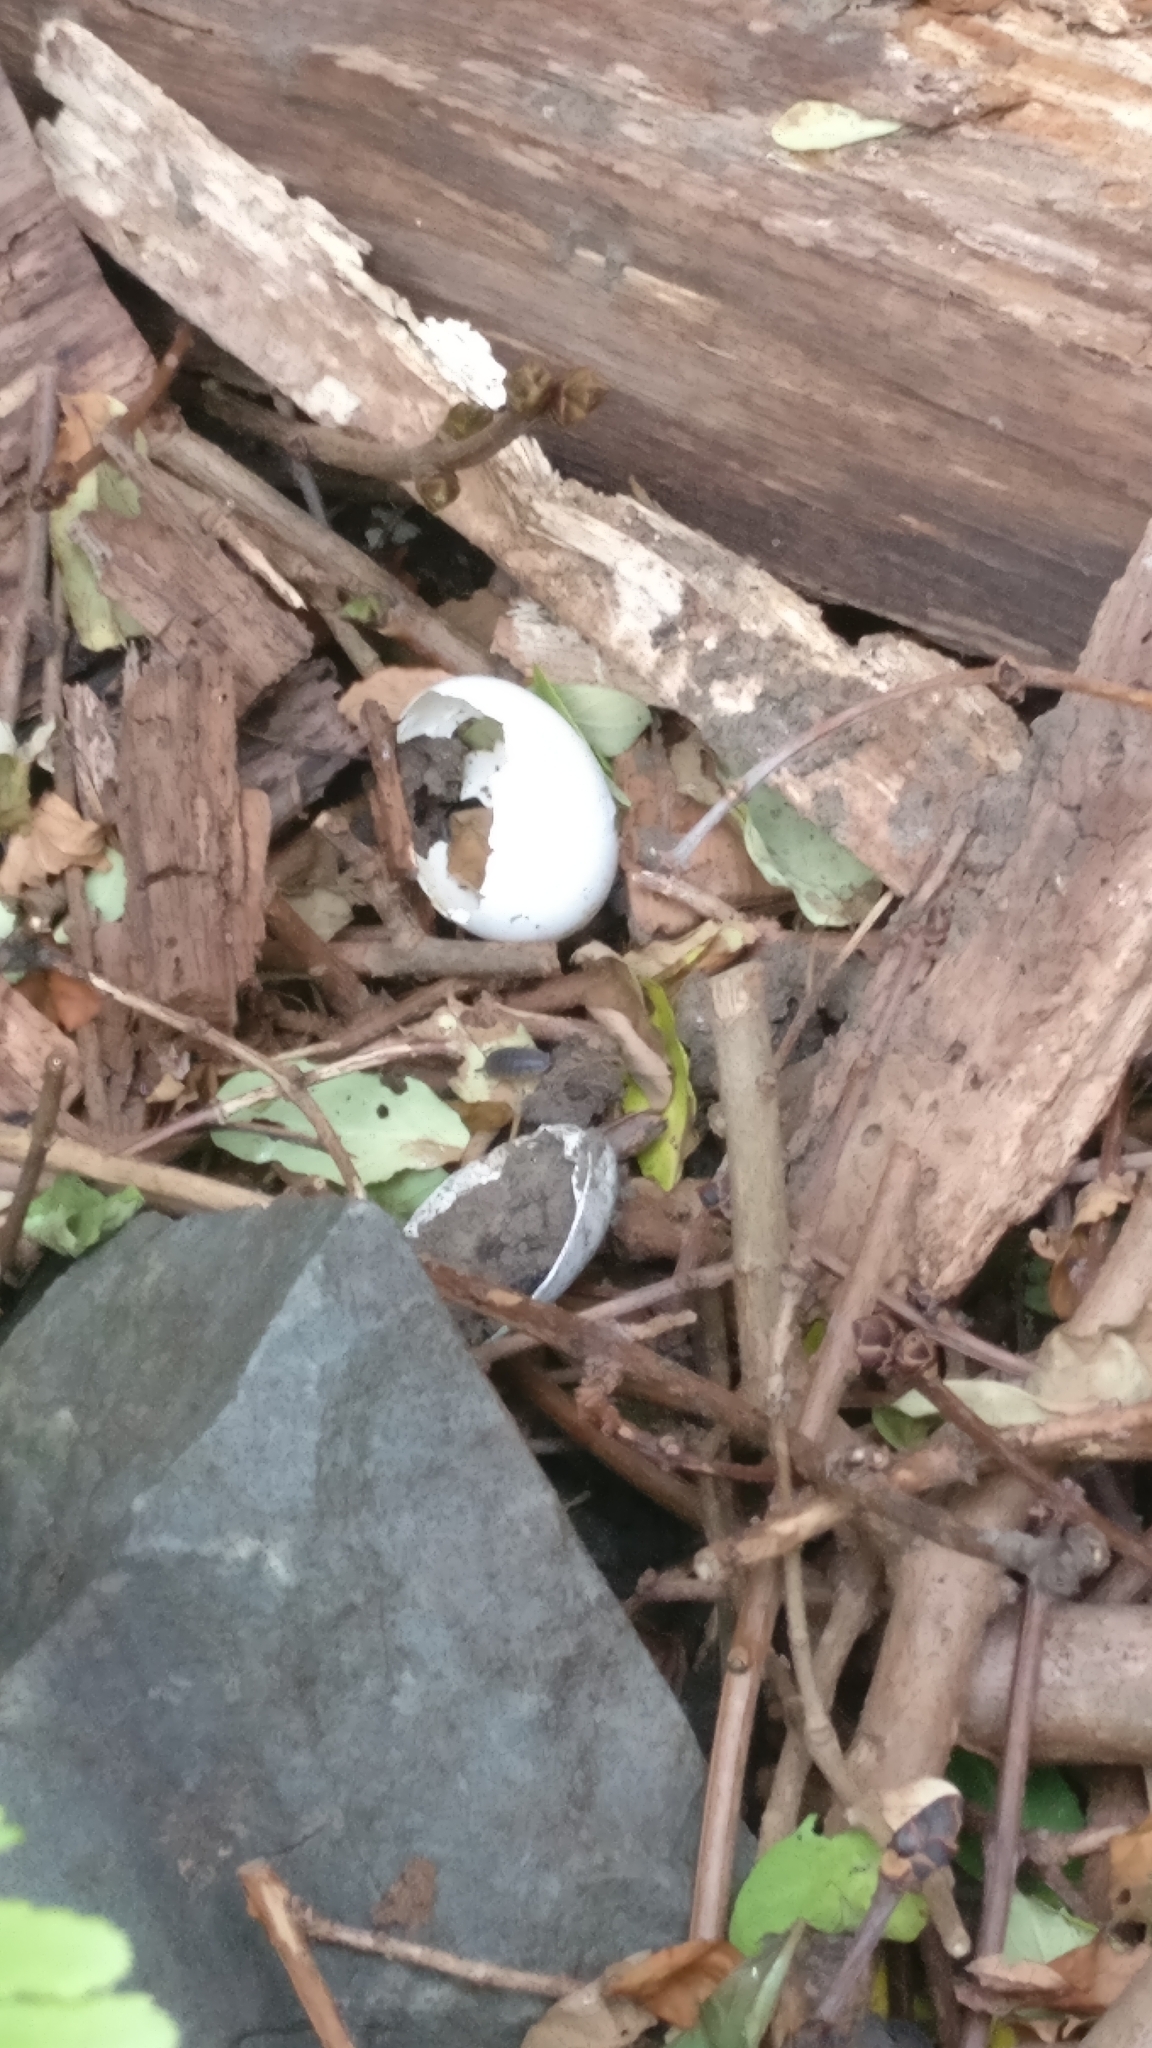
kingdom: Animalia
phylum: Chordata
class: Aves
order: Columbiformes
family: Columbidae
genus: Columba
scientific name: Columba palumbus
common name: Common wood pigeon
